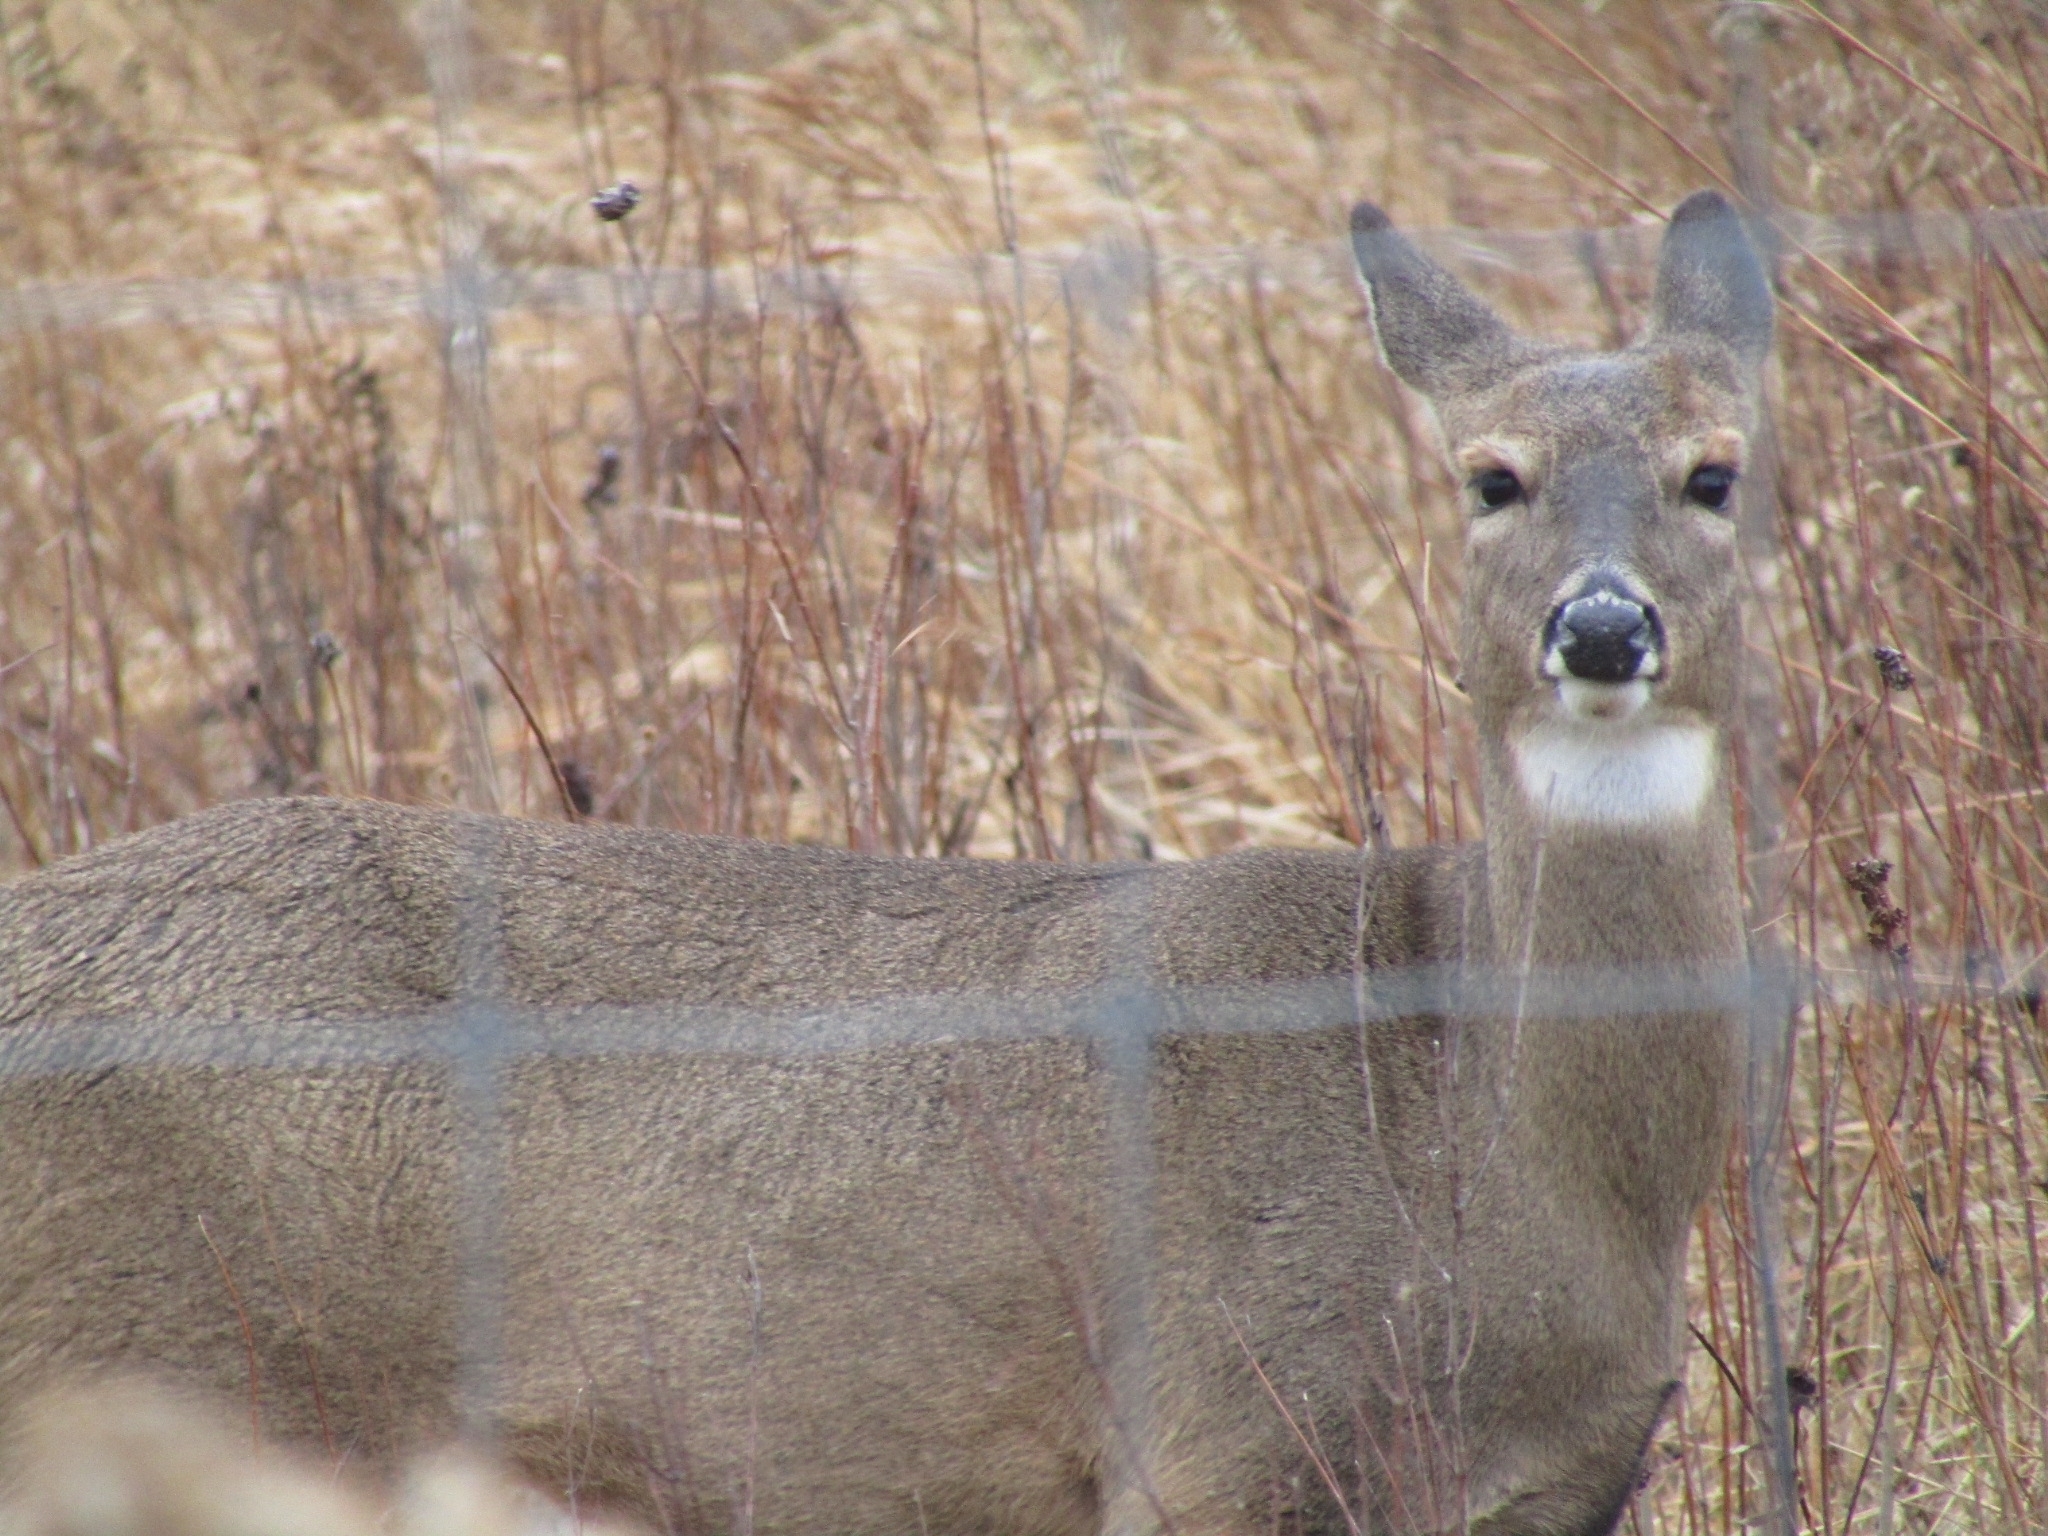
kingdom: Animalia
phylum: Chordata
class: Mammalia
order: Artiodactyla
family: Cervidae
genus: Odocoileus
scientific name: Odocoileus virginianus
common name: White-tailed deer
